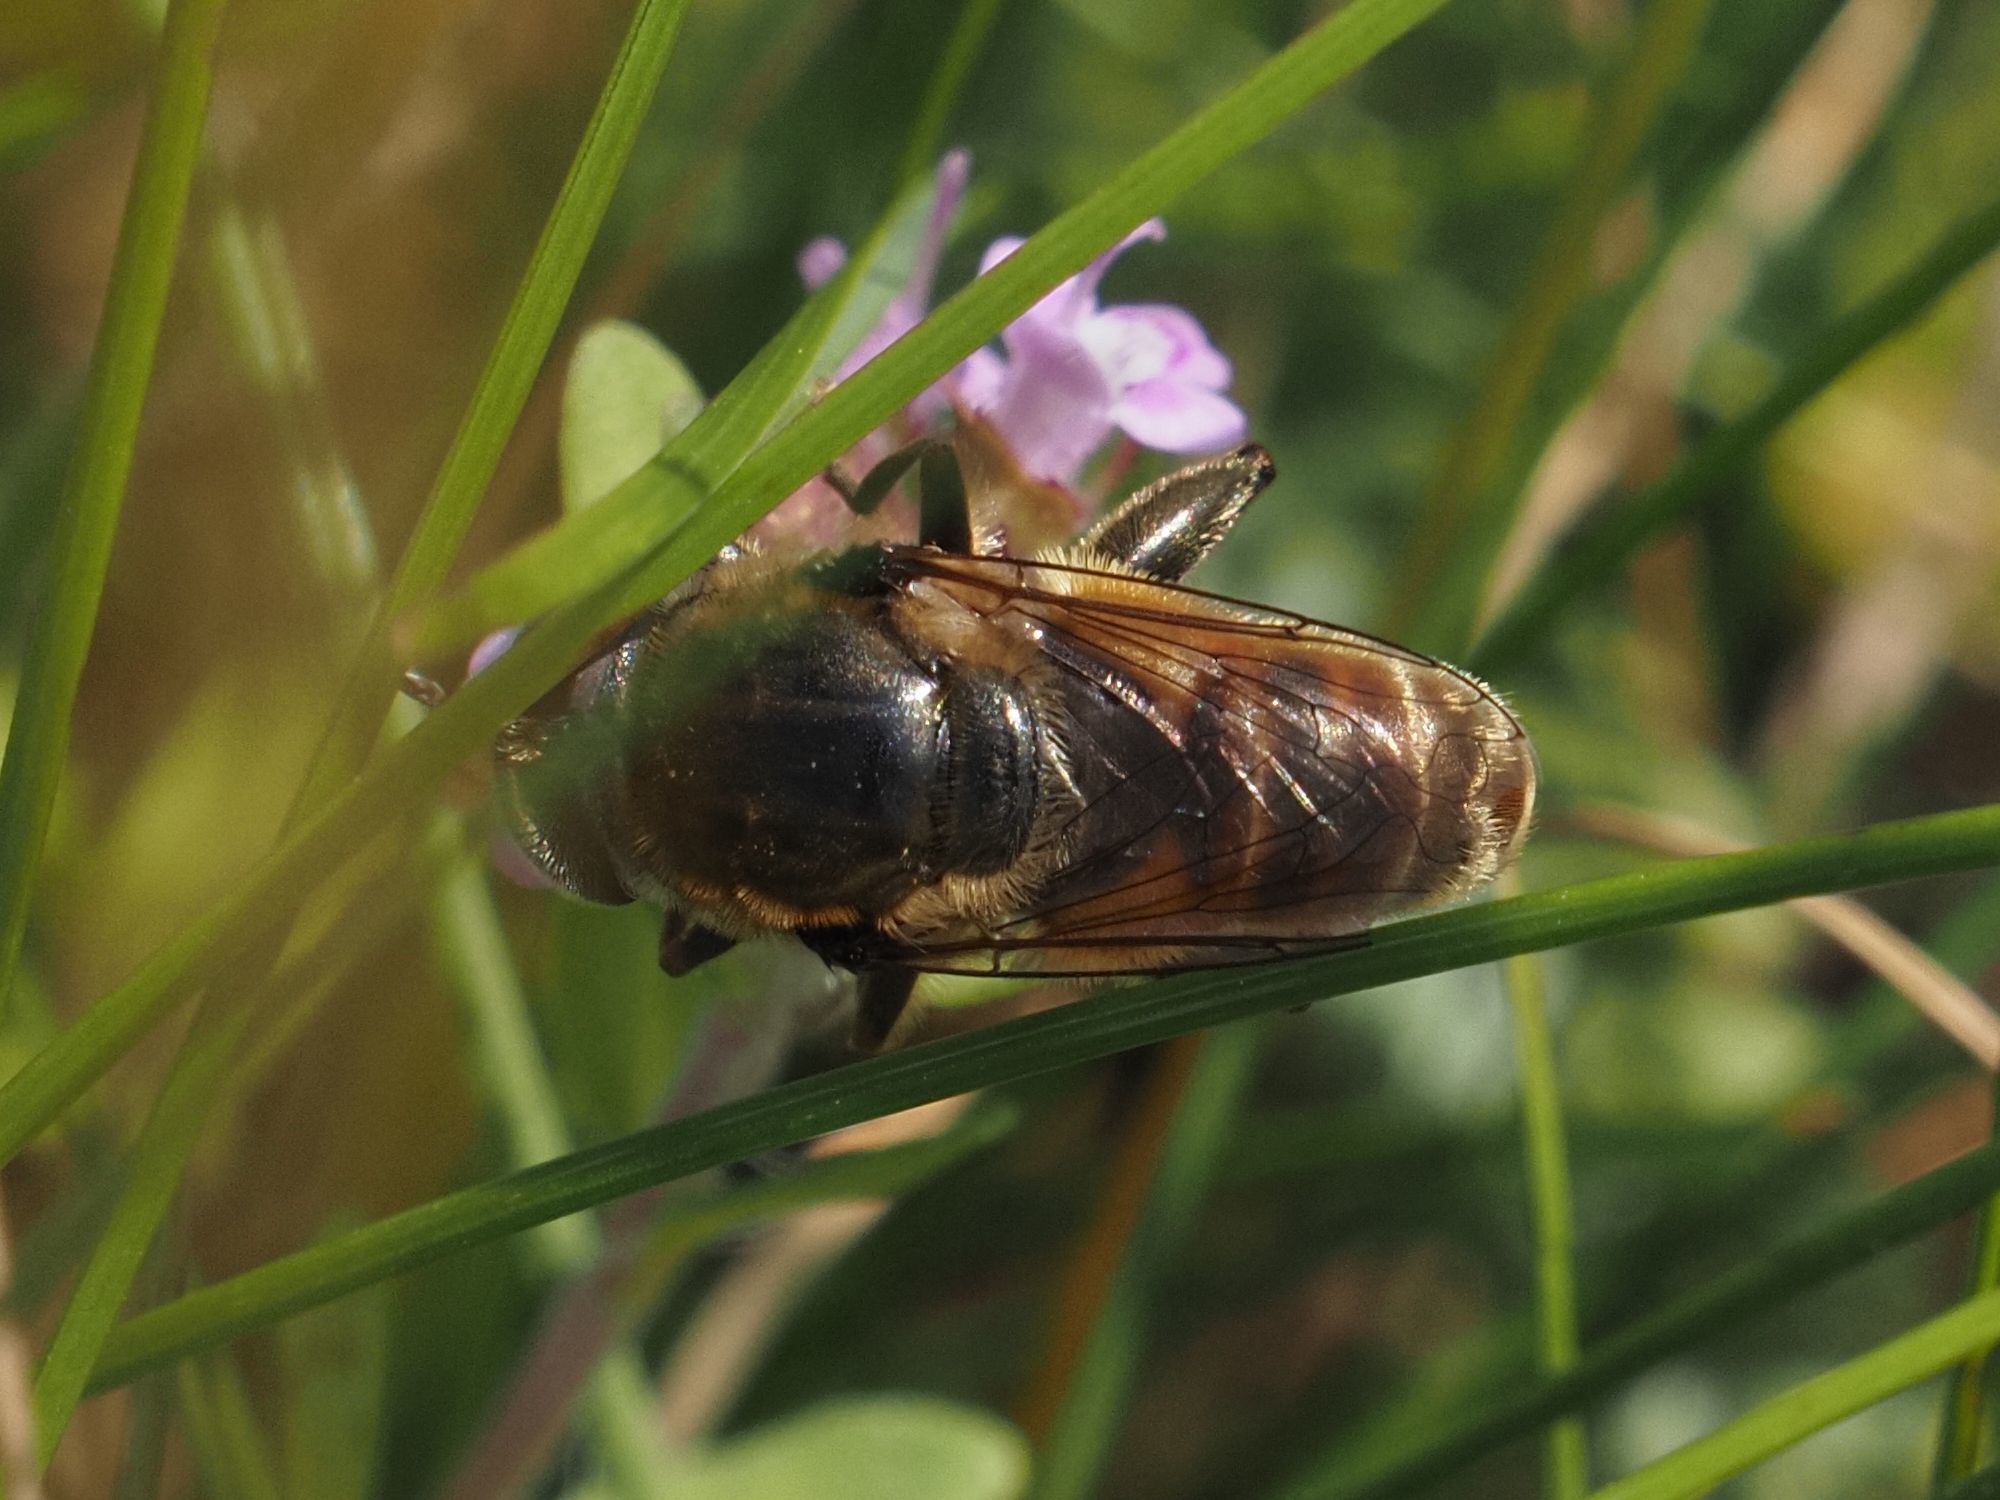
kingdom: Animalia
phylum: Arthropoda
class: Insecta
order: Diptera
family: Syrphidae
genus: Merodon
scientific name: Merodon albifrons
